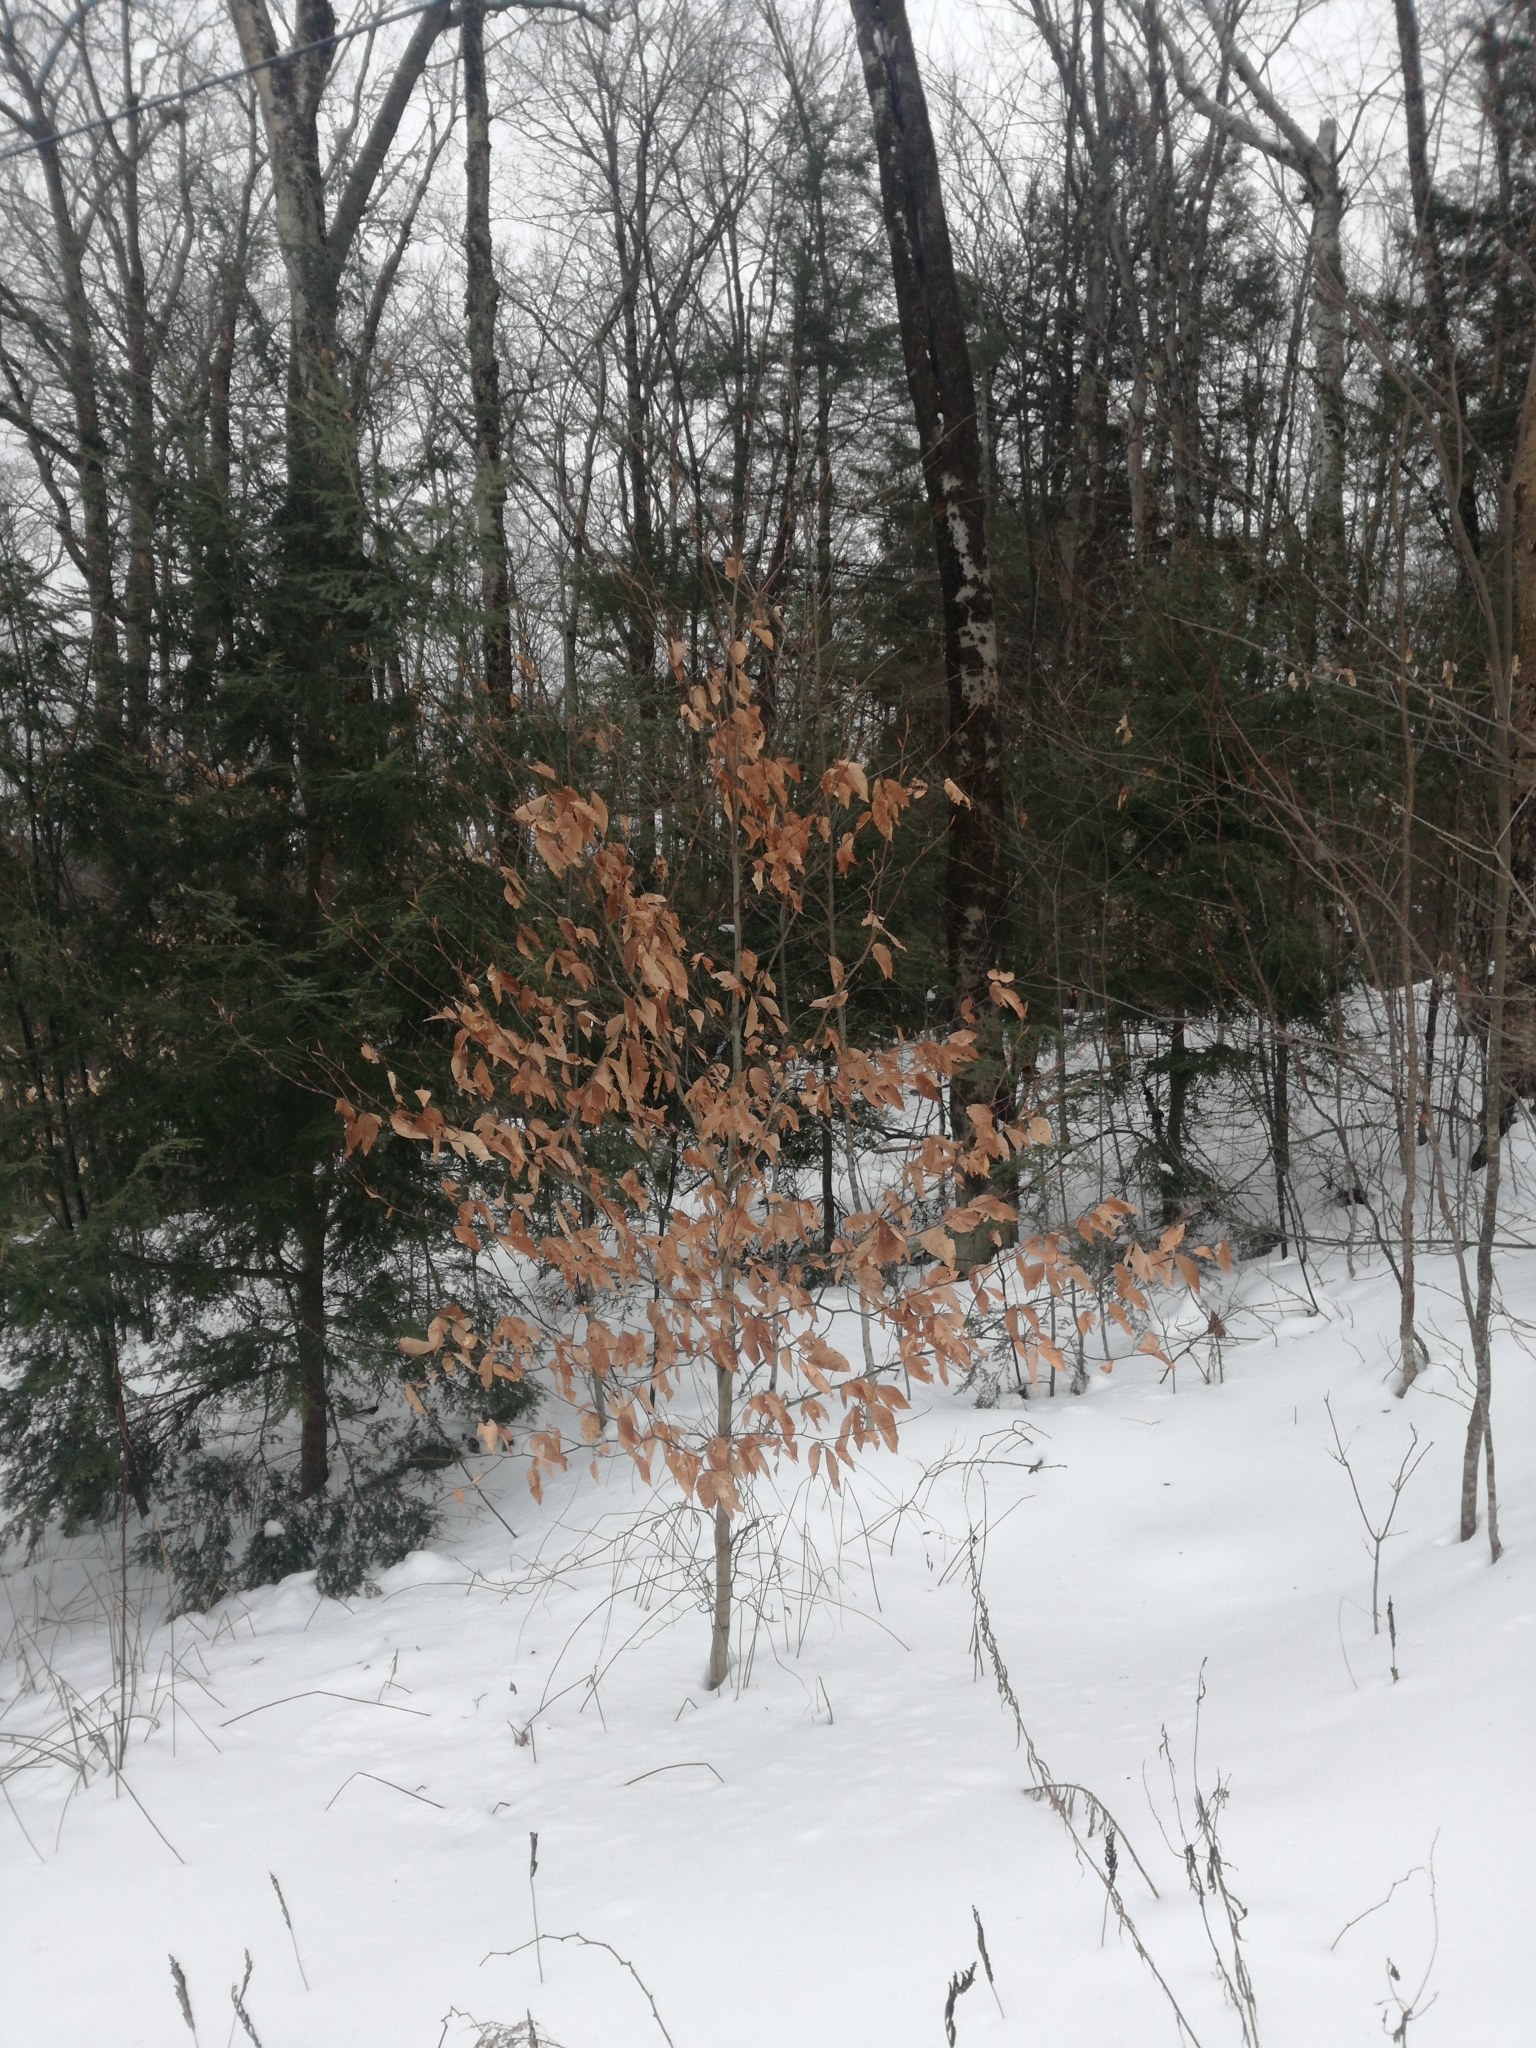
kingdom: Plantae
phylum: Tracheophyta
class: Magnoliopsida
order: Fagales
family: Fagaceae
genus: Fagus
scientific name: Fagus grandifolia
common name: American beech
